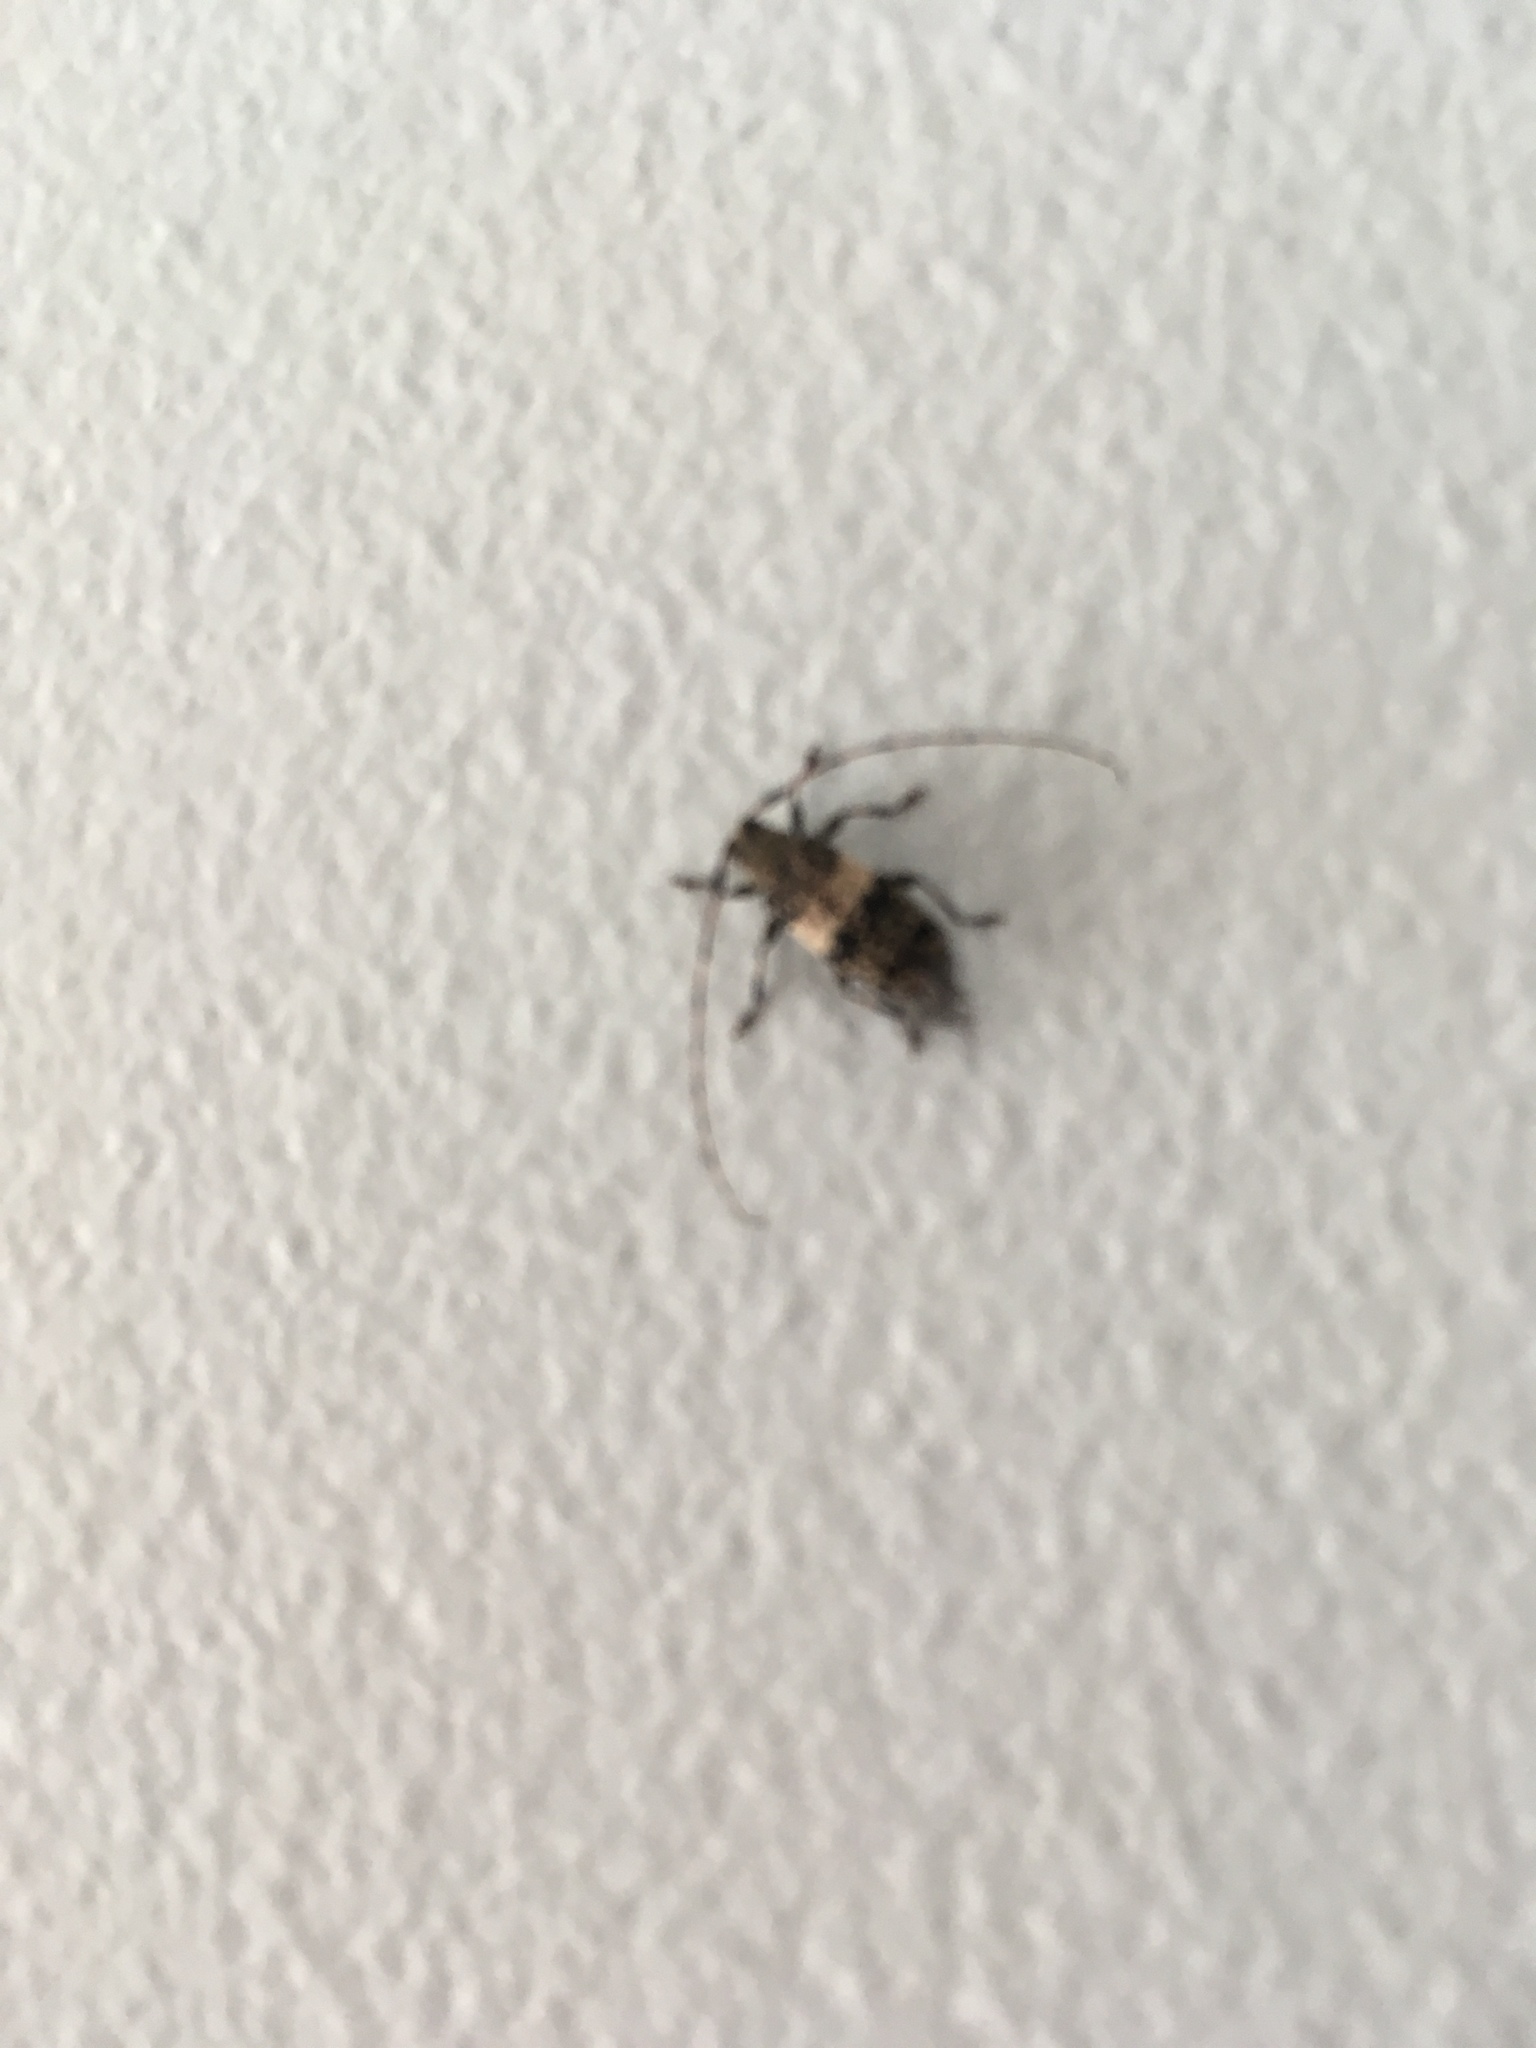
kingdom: Animalia
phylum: Arthropoda
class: Insecta
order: Coleoptera
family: Cerambycidae
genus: Leiopus
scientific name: Leiopus
